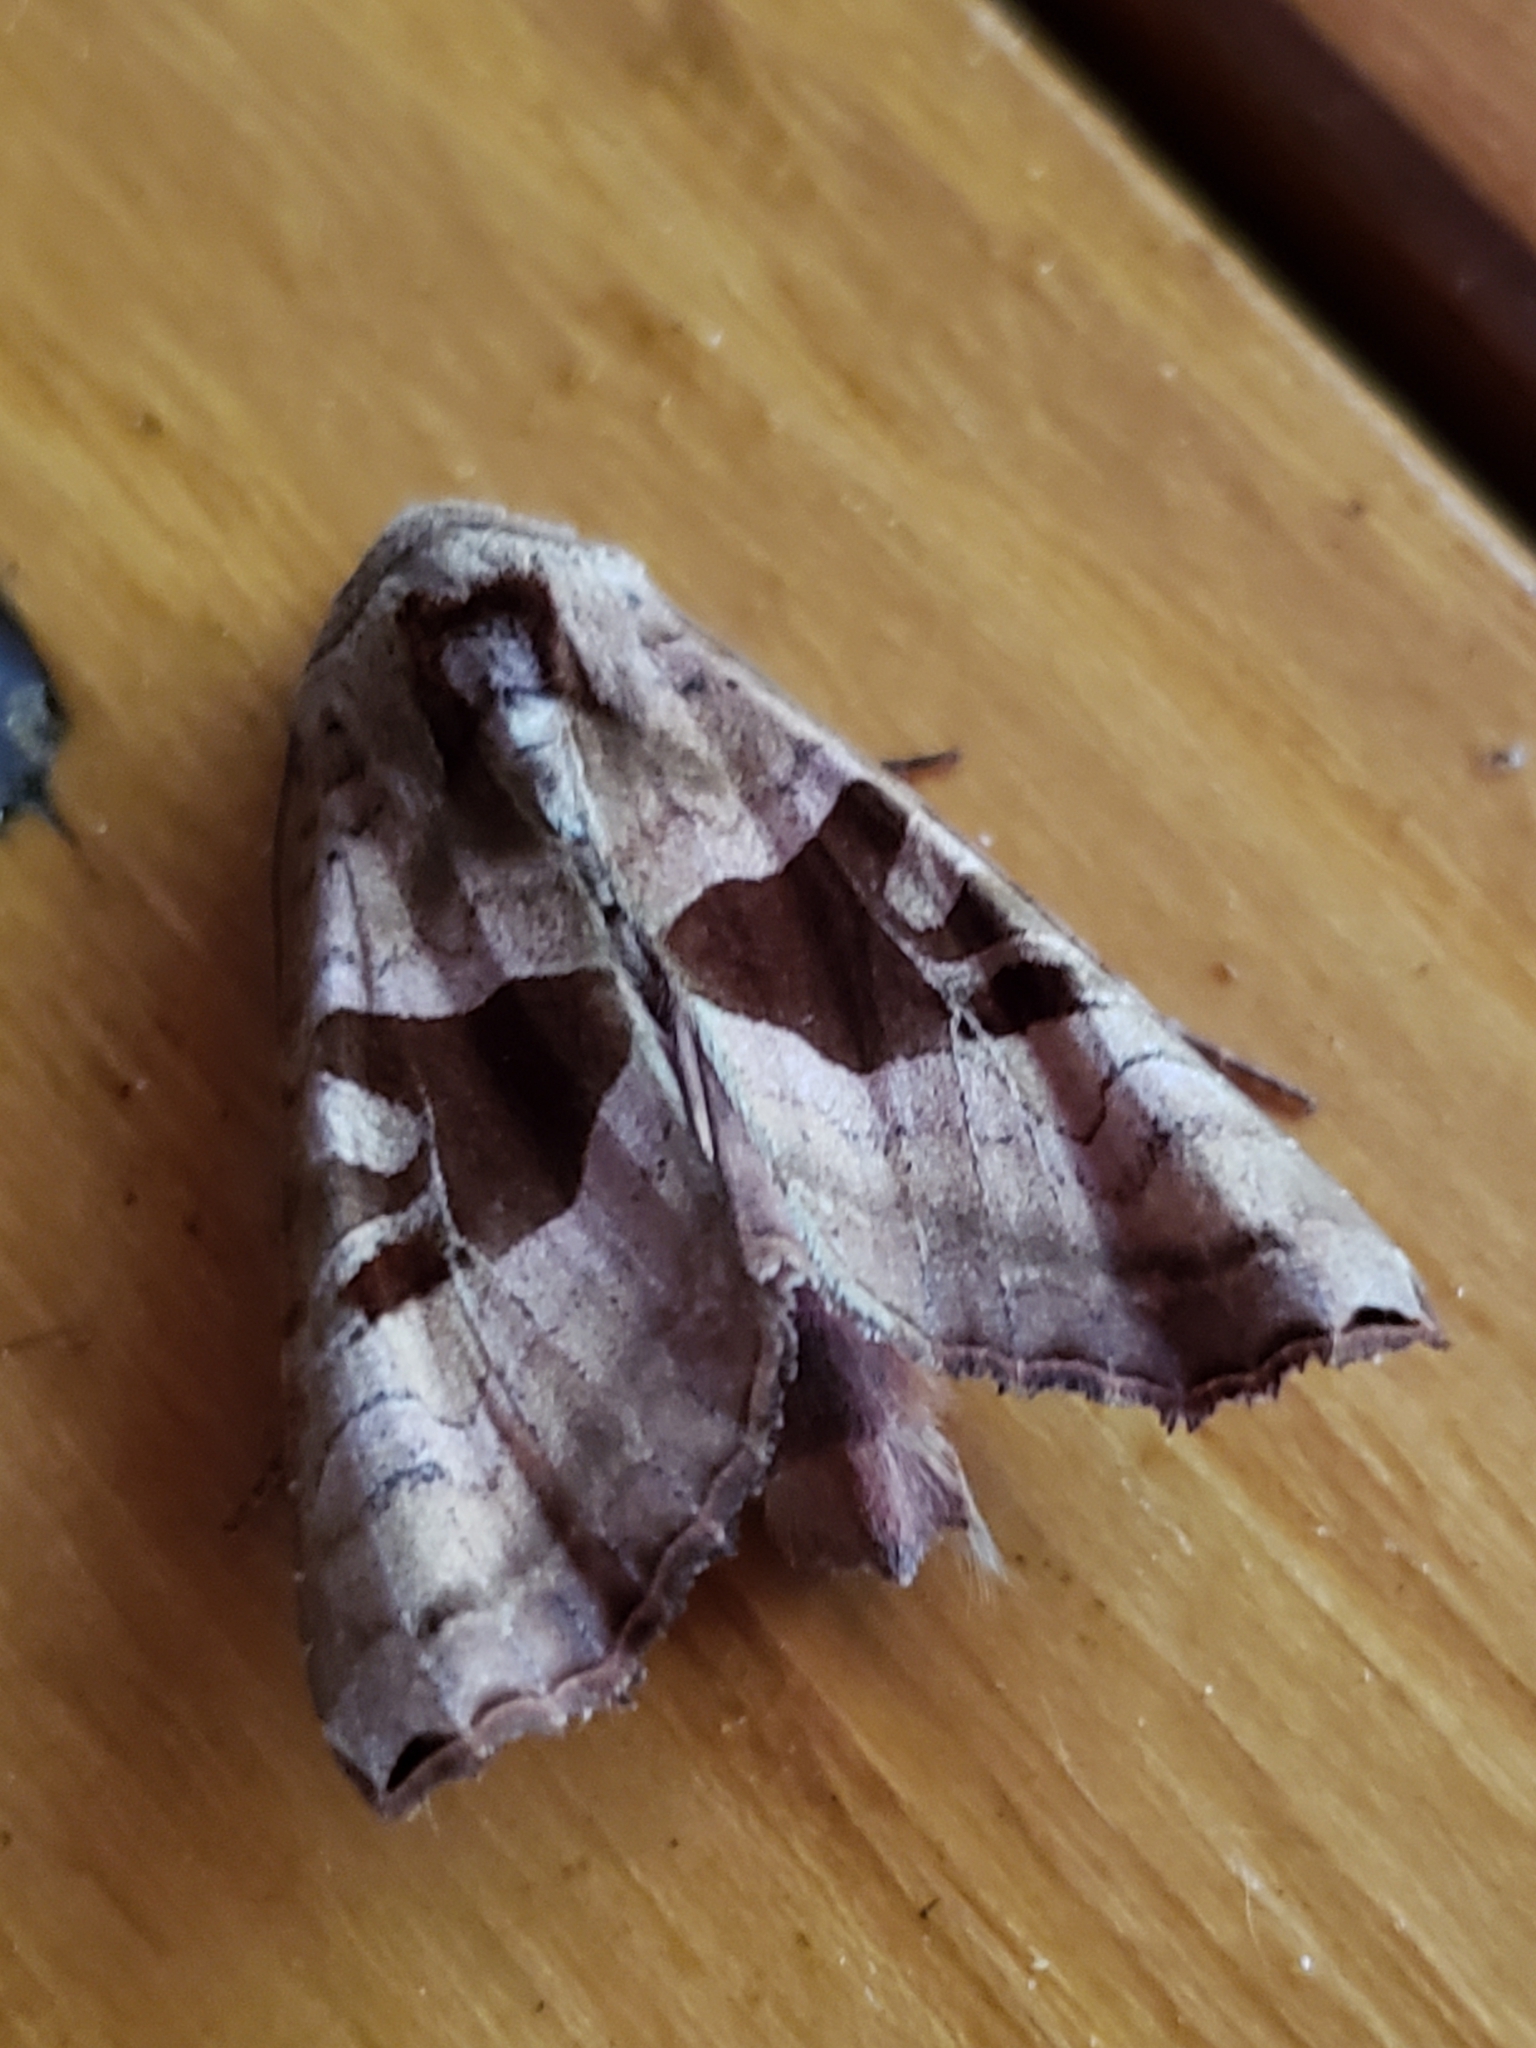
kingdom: Animalia
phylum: Arthropoda
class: Insecta
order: Lepidoptera
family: Noctuidae
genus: Phlogophora
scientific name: Phlogophora periculosa
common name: Brown angle shades
